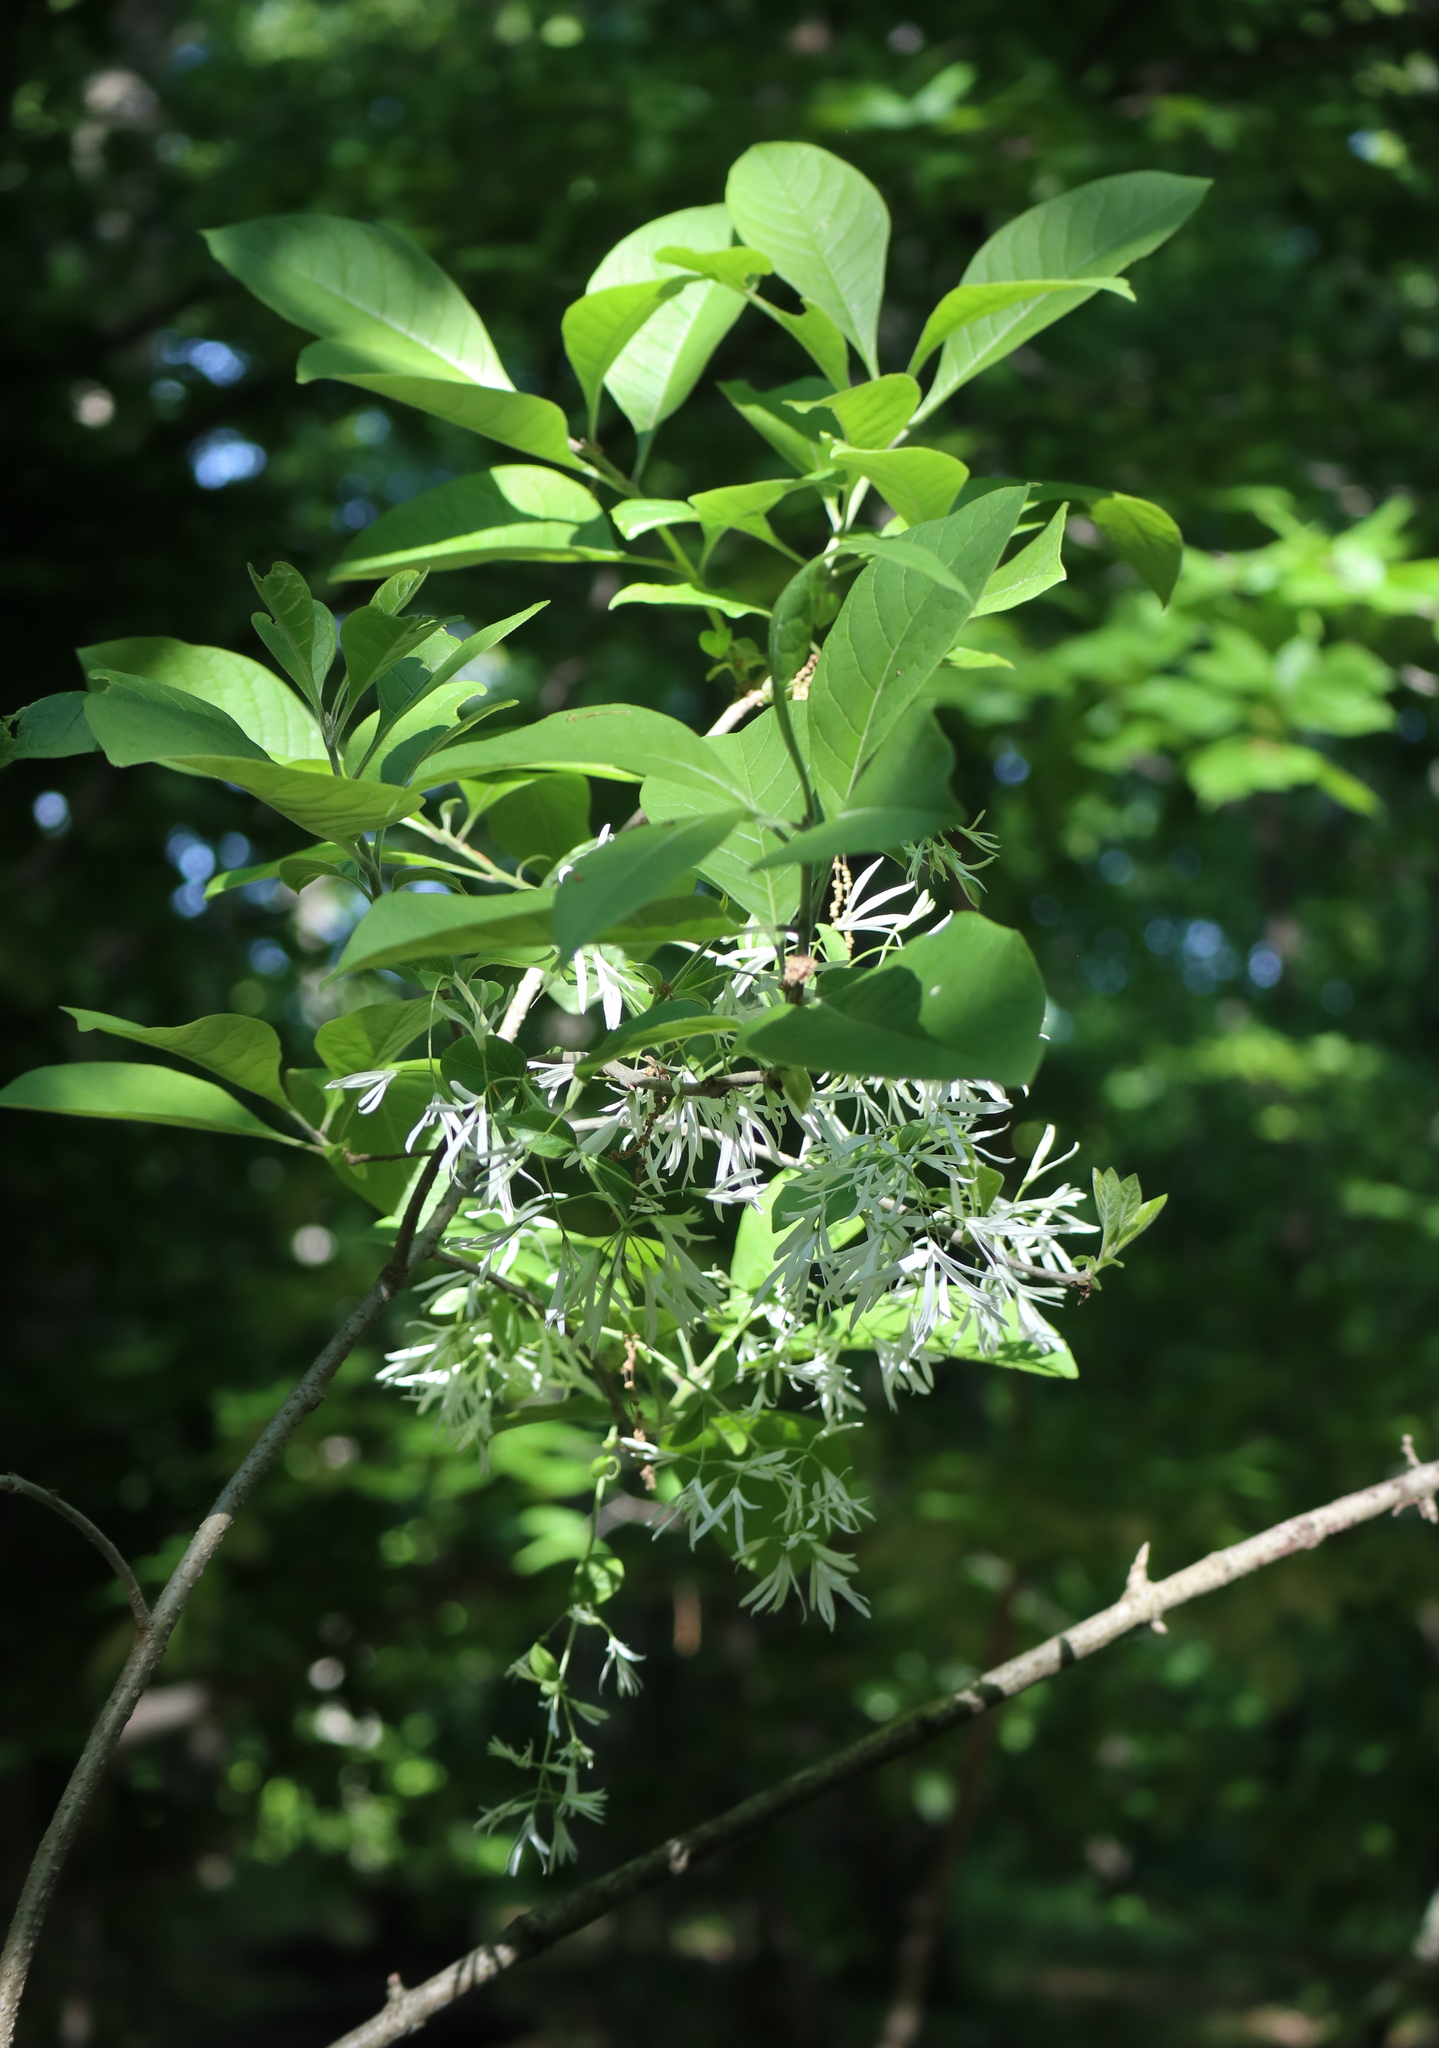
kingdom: Plantae
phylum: Tracheophyta
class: Magnoliopsida
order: Lamiales
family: Oleaceae
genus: Chionanthus
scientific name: Chionanthus virginicus
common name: American fringetree
